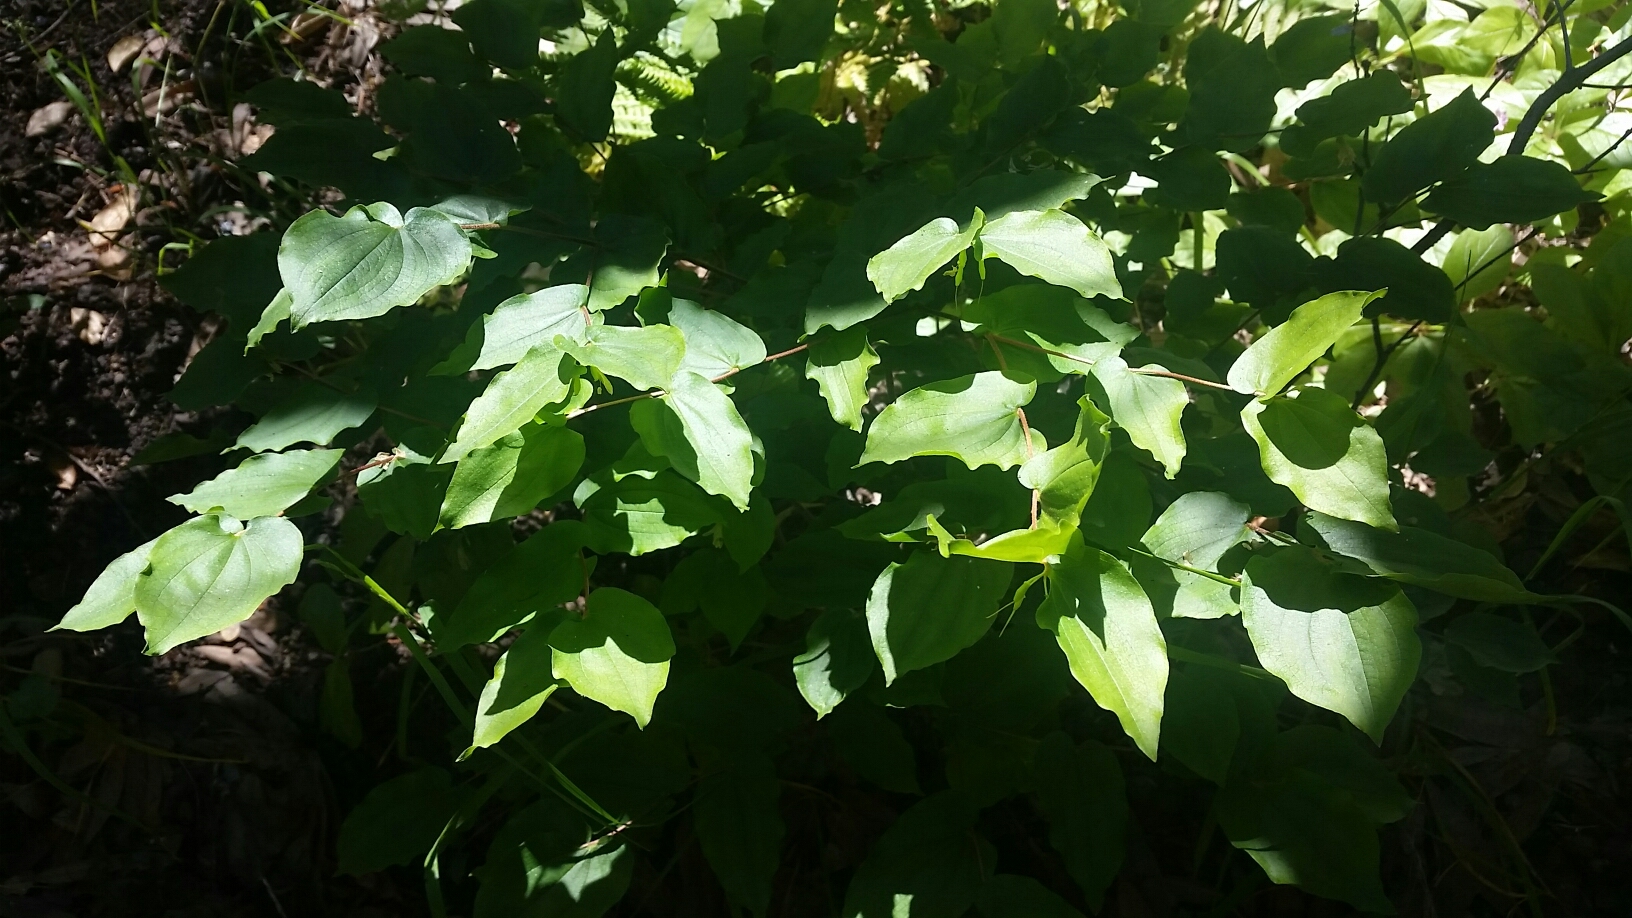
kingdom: Plantae
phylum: Tracheophyta
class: Liliopsida
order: Liliales
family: Liliaceae
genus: Prosartes
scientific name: Prosartes hookeri
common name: Fairy-bells
